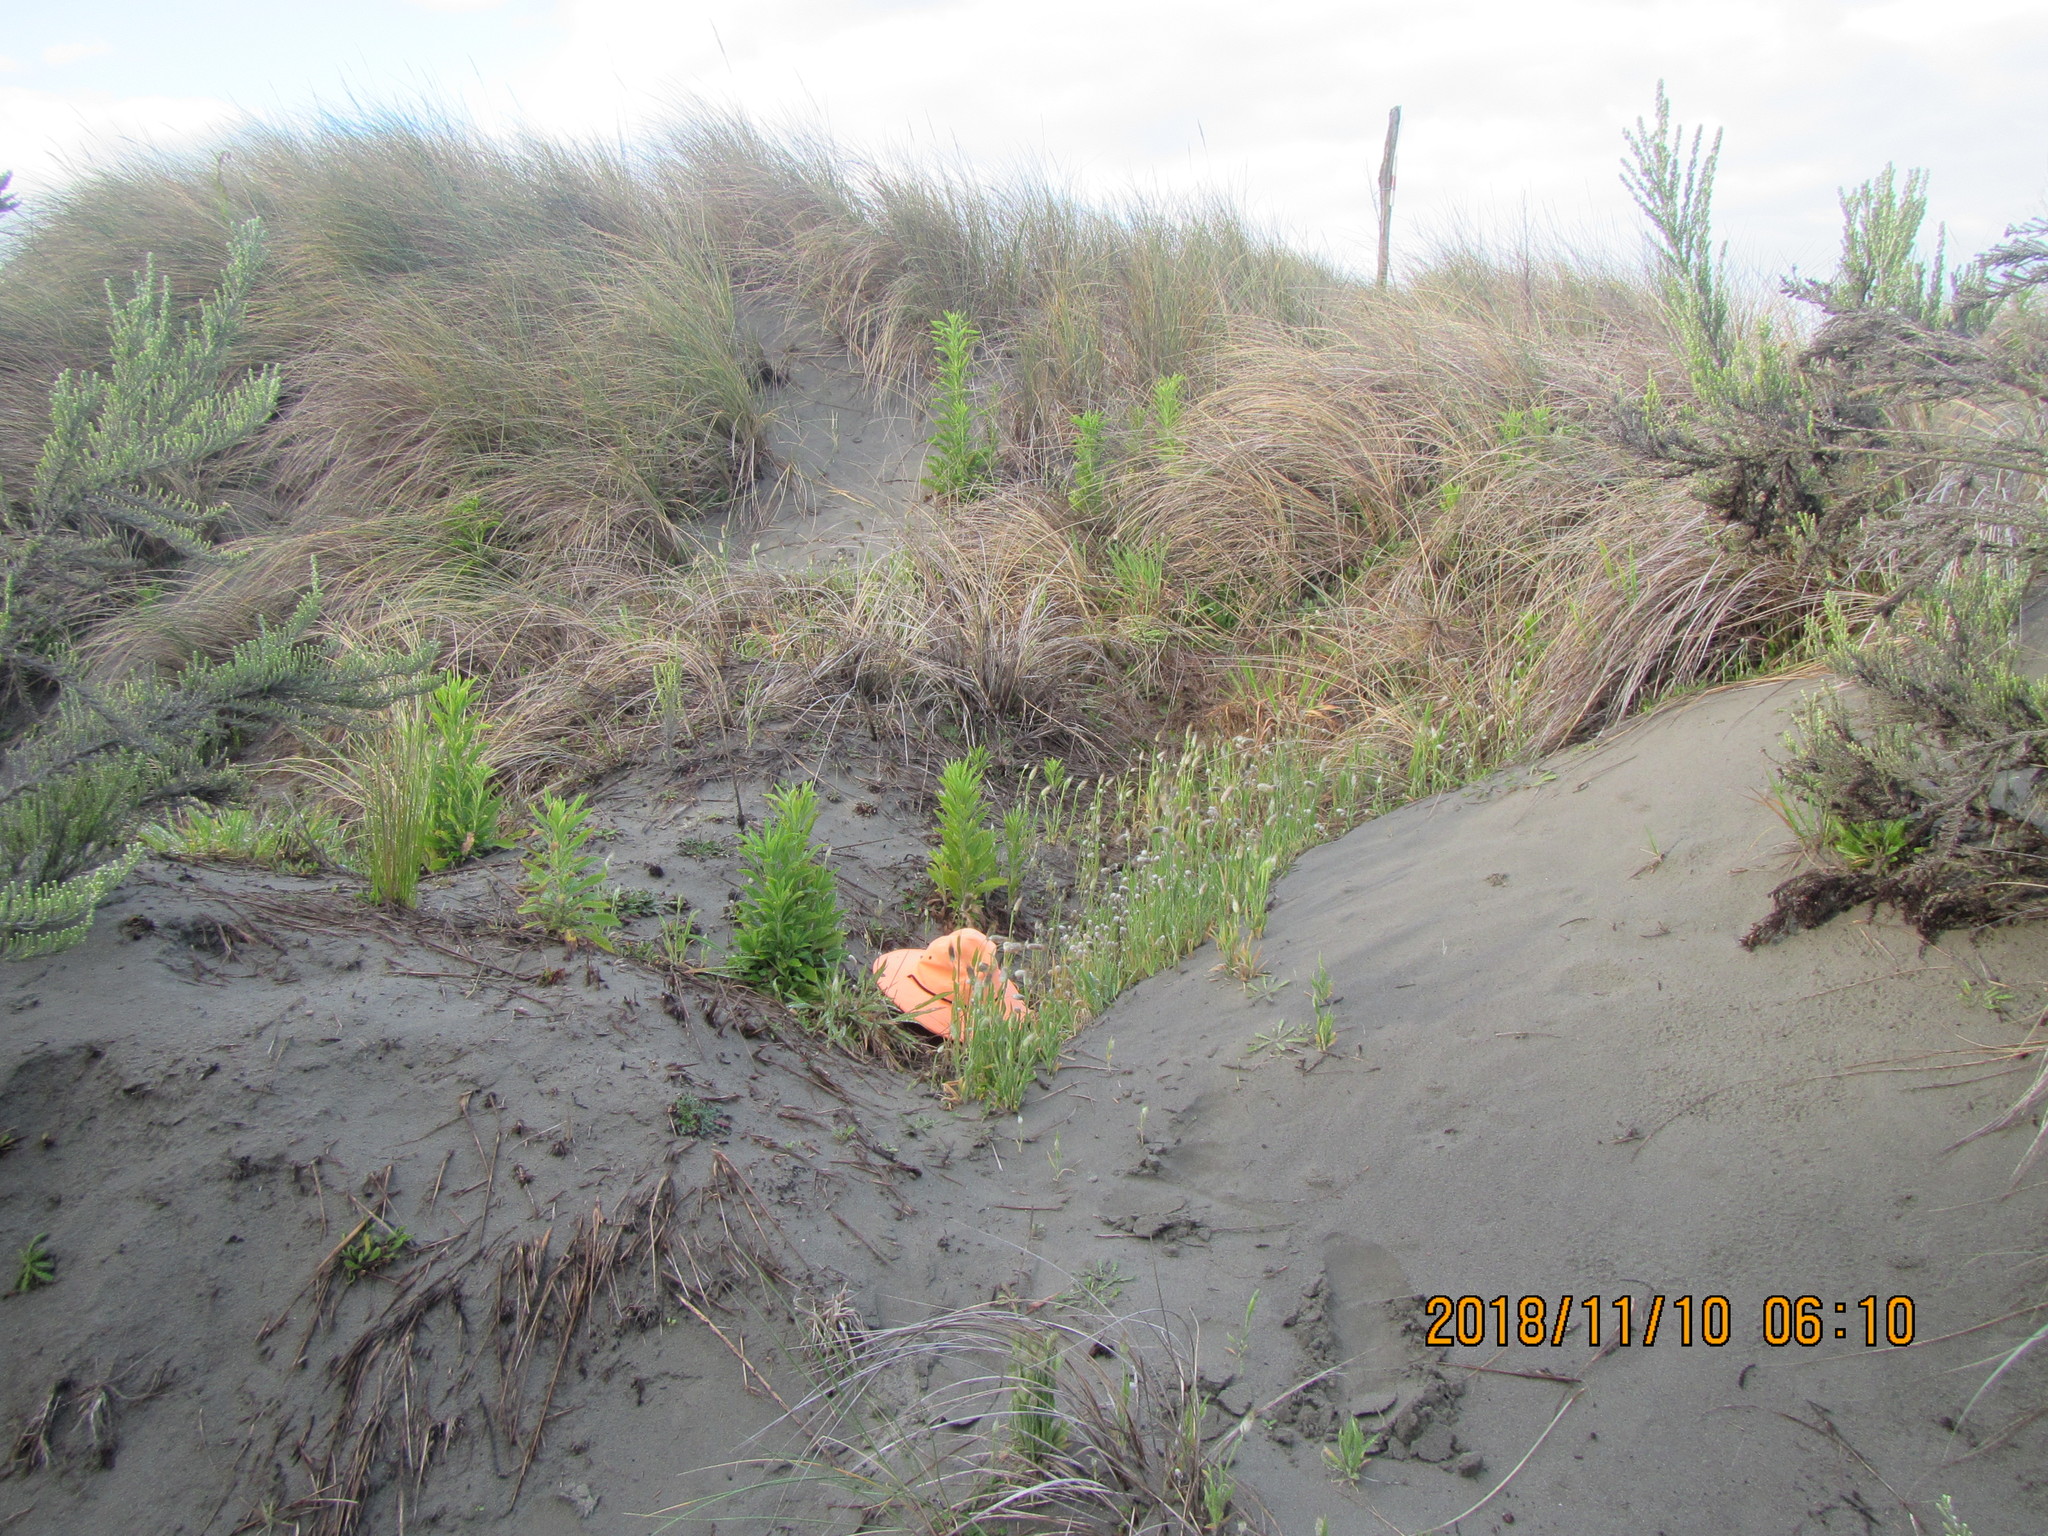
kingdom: Plantae
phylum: Tracheophyta
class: Liliopsida
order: Poales
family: Poaceae
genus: Lagurus
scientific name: Lagurus ovatus
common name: Hare's-tail
